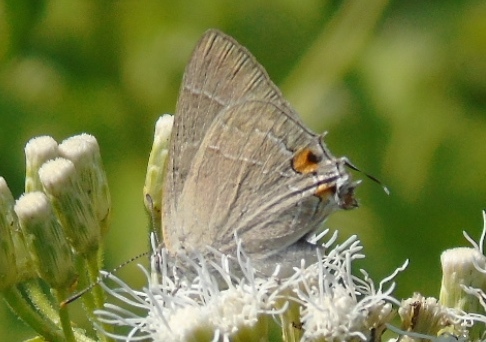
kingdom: Animalia
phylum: Arthropoda
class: Insecta
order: Lepidoptera
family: Lycaenidae
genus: Rekoa
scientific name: Rekoa
